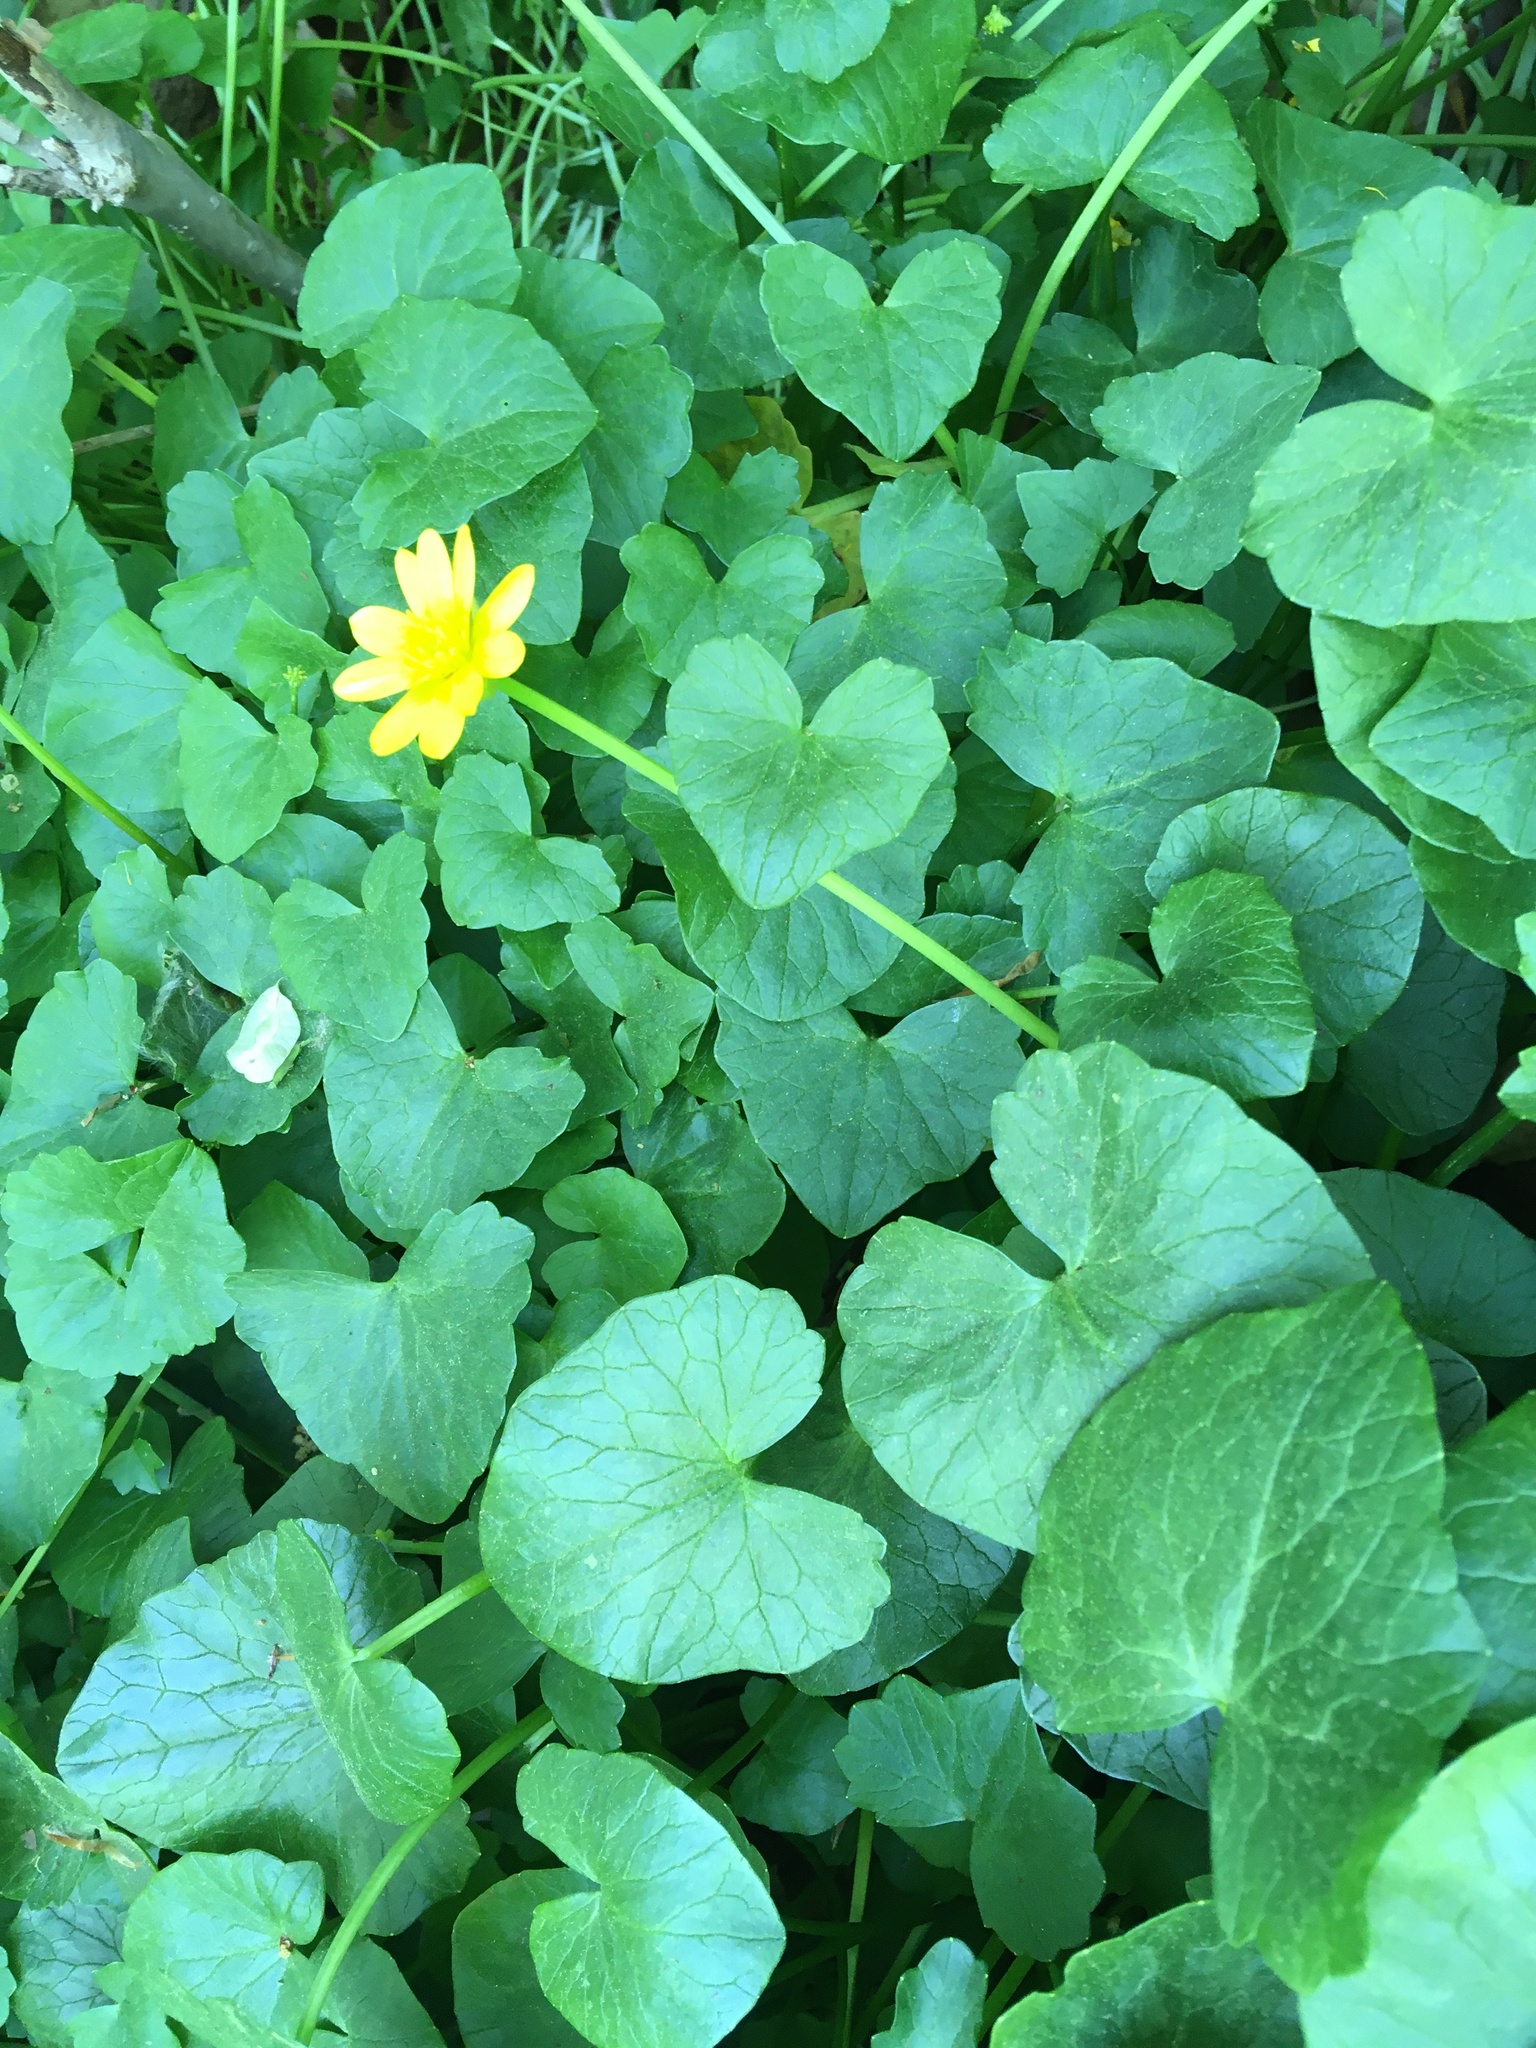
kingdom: Plantae
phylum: Tracheophyta
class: Magnoliopsida
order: Ranunculales
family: Ranunculaceae
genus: Ficaria
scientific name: Ficaria verna
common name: Lesser celandine
